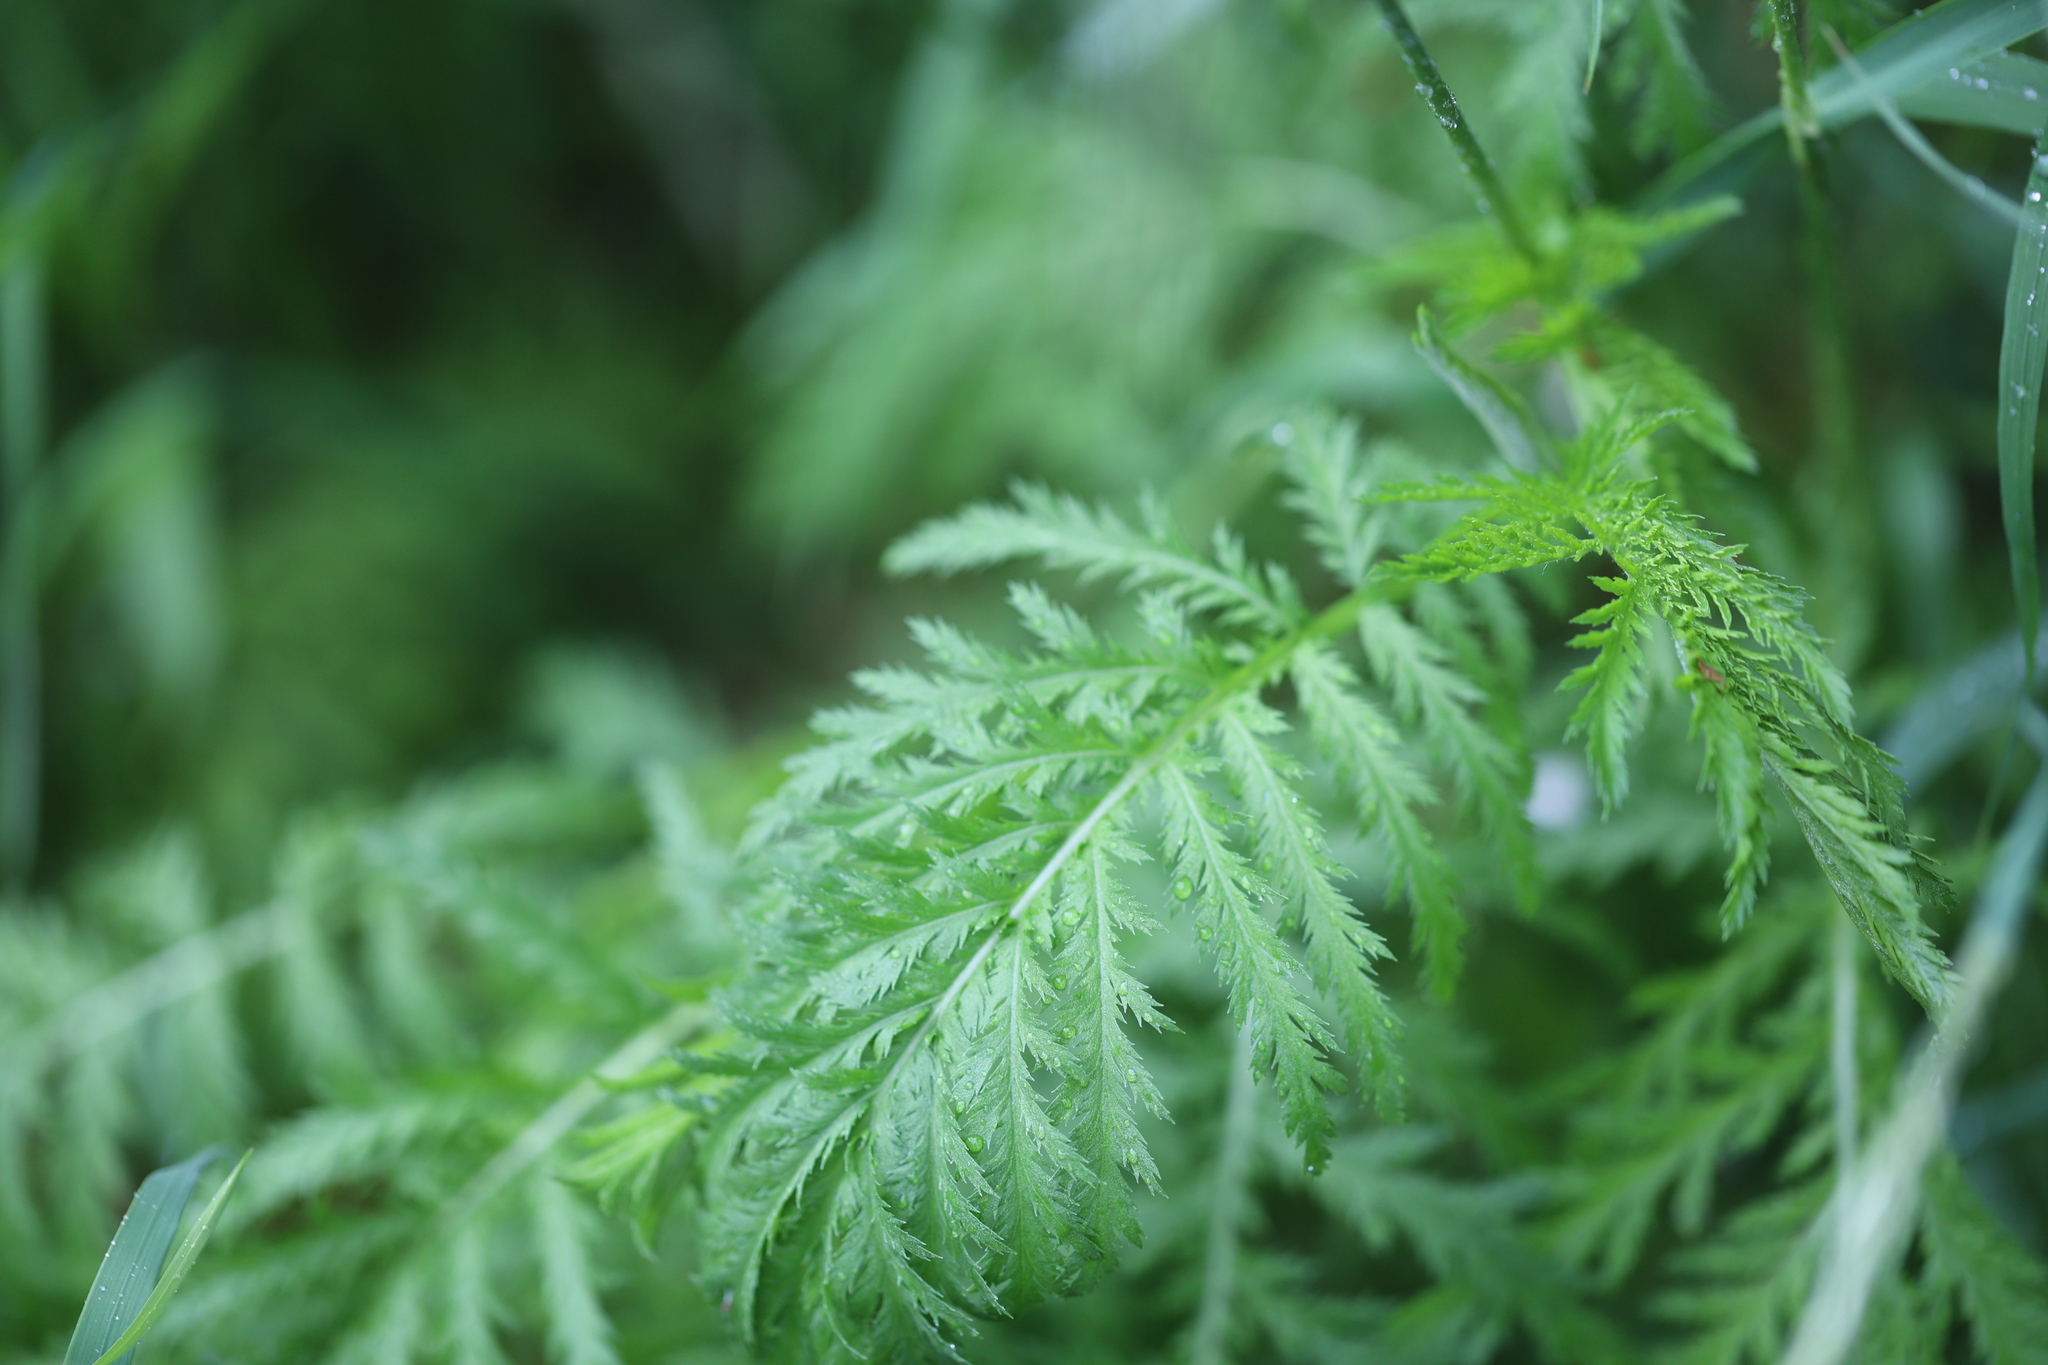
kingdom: Plantae
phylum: Tracheophyta
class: Magnoliopsida
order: Asterales
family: Asteraceae
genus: Tanacetum
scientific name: Tanacetum vulgare
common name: Common tansy
